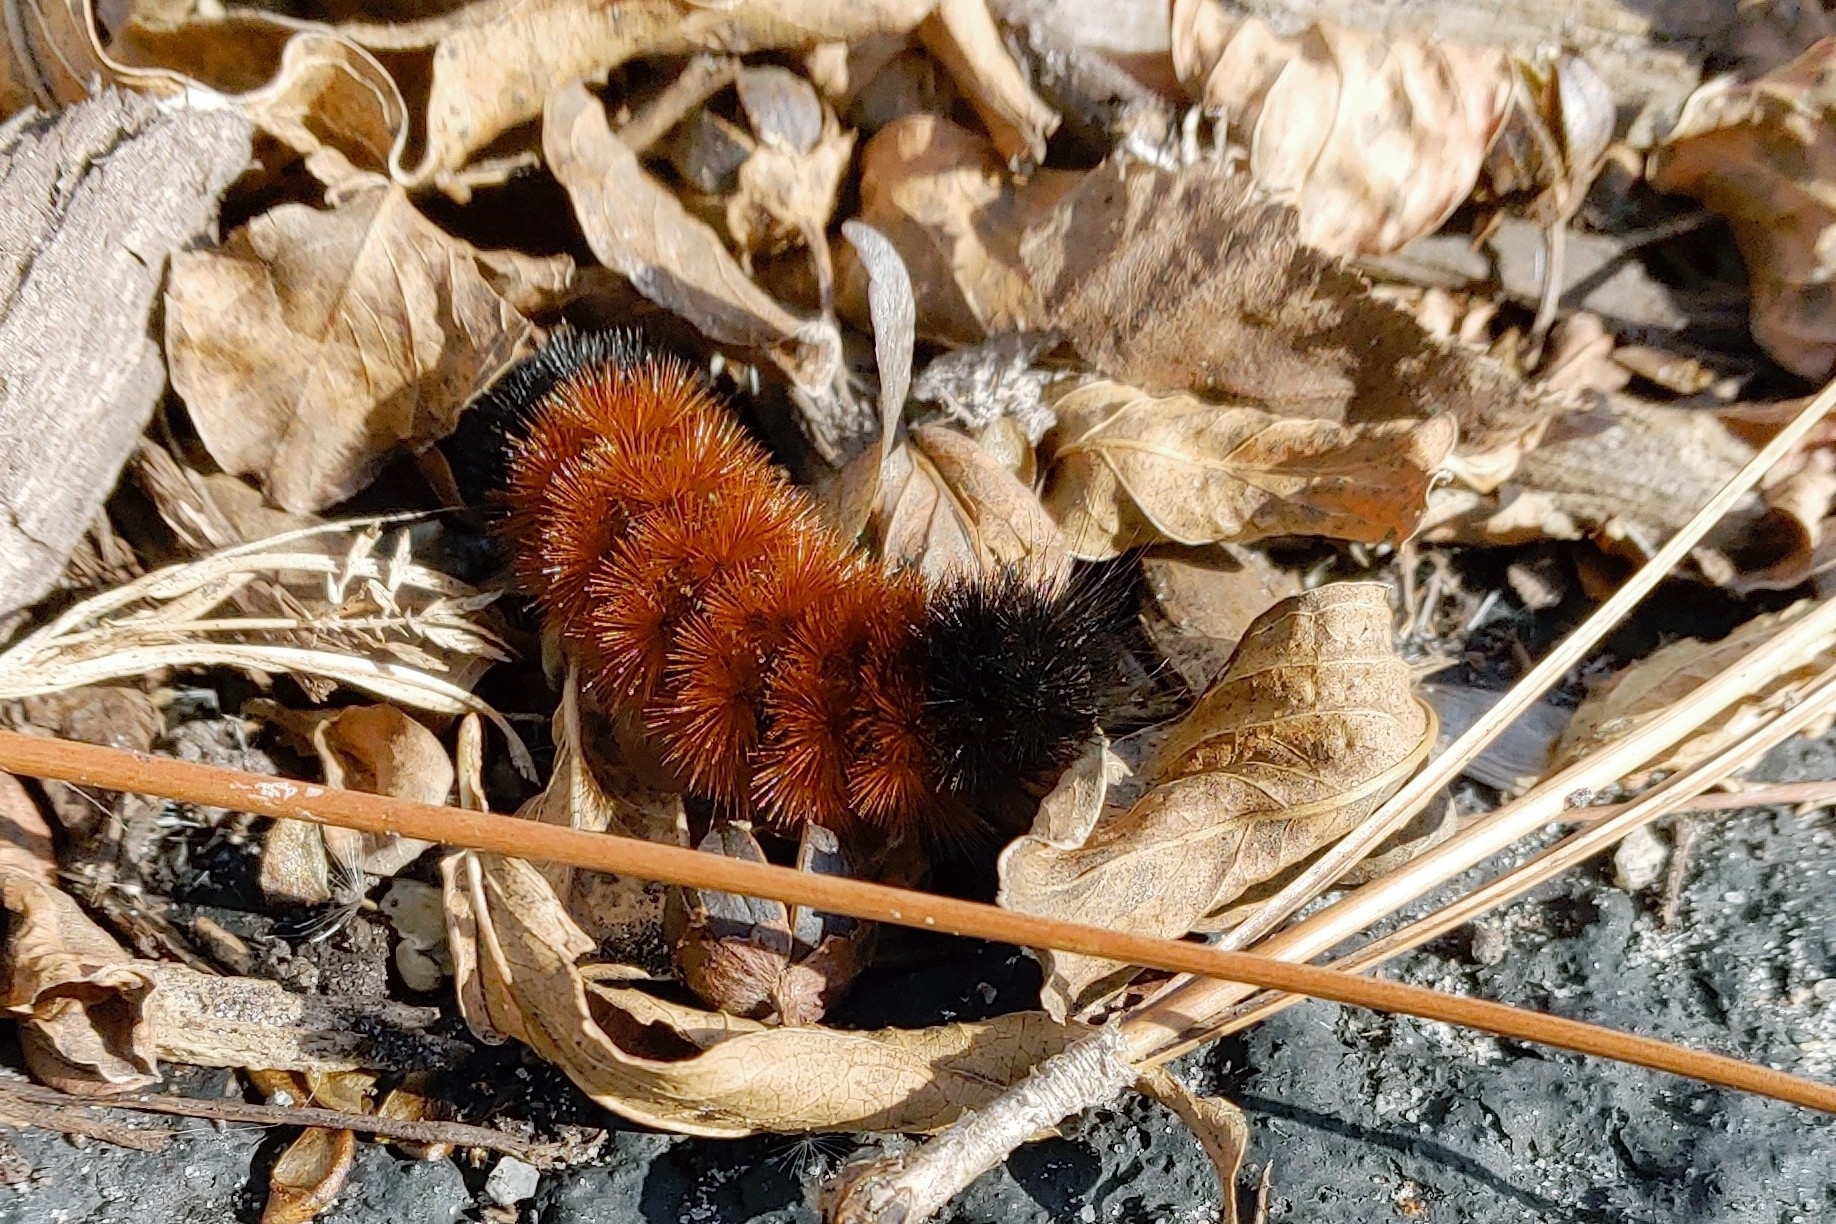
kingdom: Animalia
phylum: Arthropoda
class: Insecta
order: Lepidoptera
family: Erebidae
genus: Pyrrharctia
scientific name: Pyrrharctia isabella
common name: Isabella tiger moth
